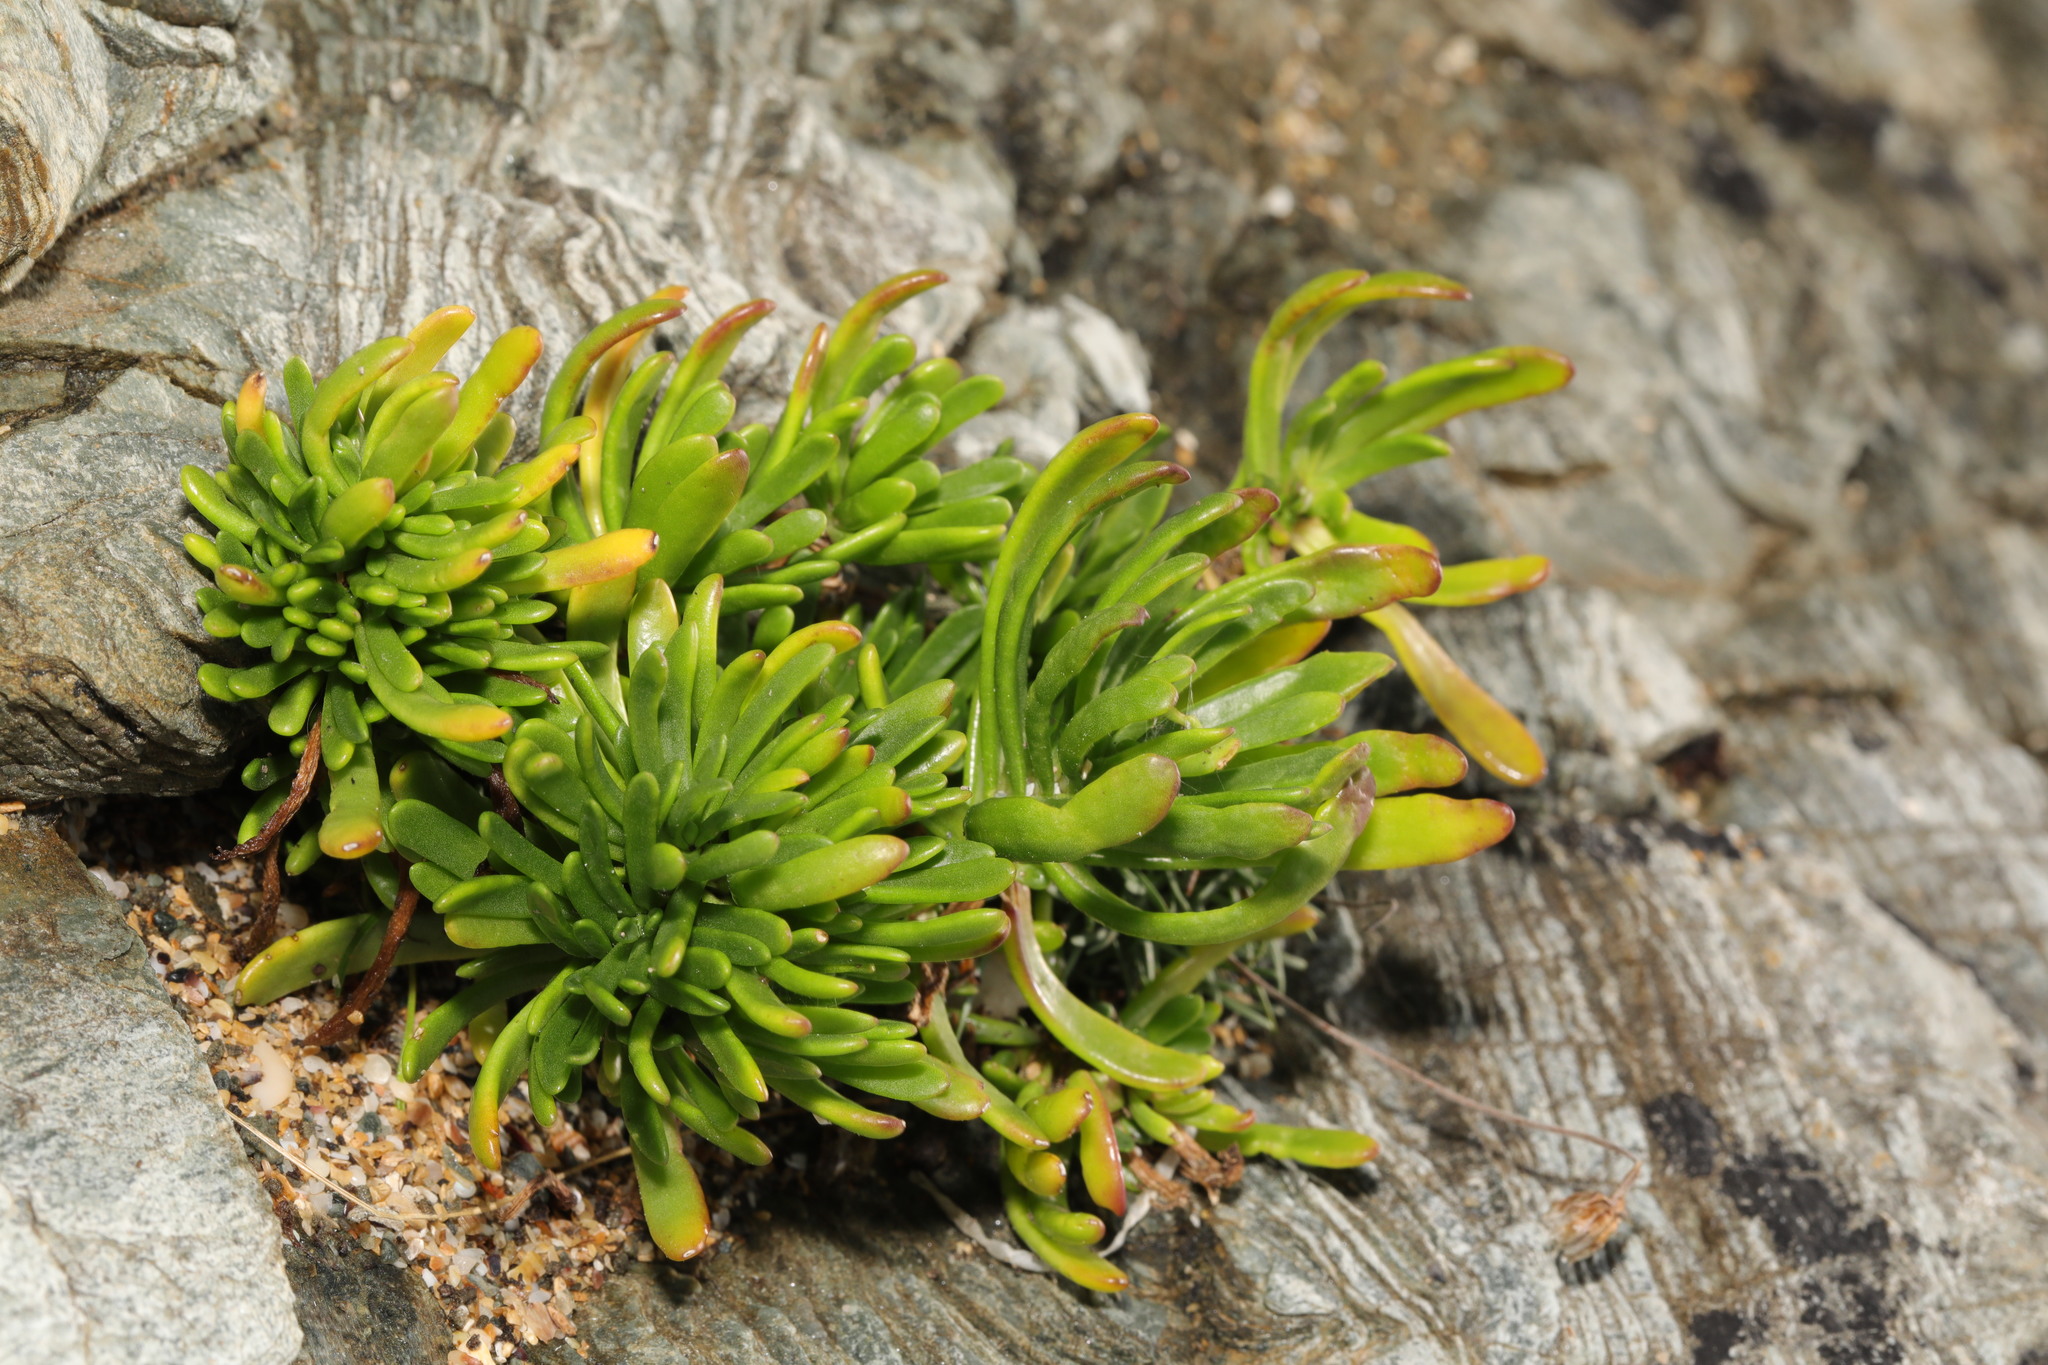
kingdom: Plantae
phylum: Tracheophyta
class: Magnoliopsida
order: Asterales
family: Asteraceae
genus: Limbarda
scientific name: Limbarda crithmoides
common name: Golden samphire
